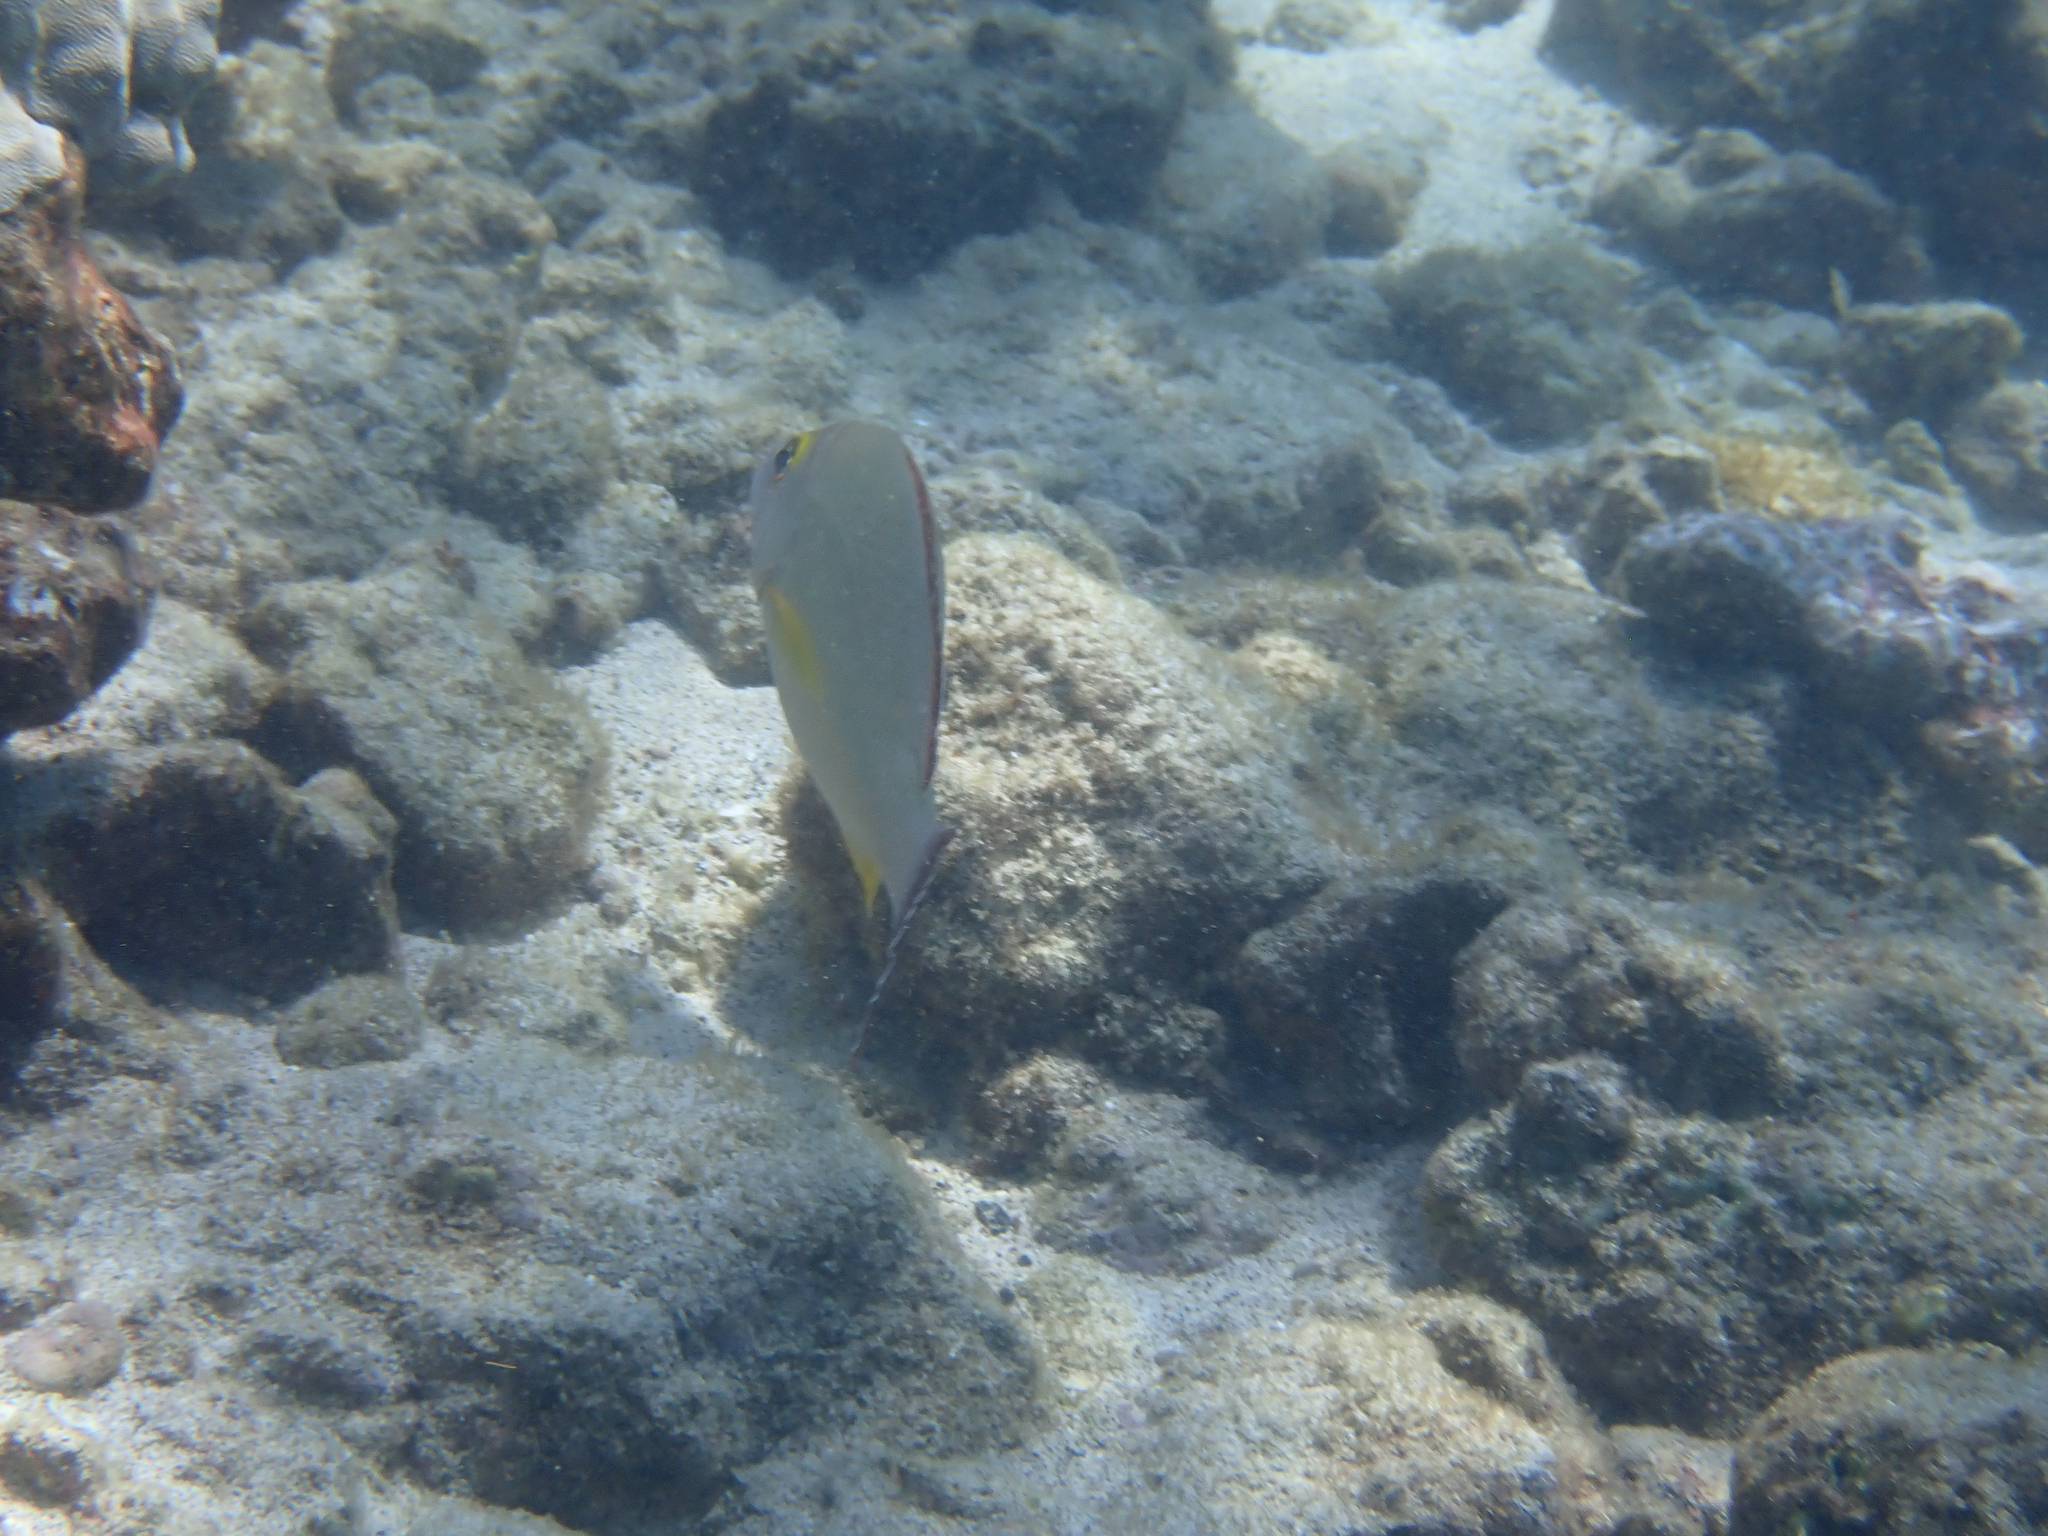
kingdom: Animalia
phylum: Chordata
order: Perciformes
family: Lutjanidae
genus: Lutjanus
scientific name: Lutjanus fulvus
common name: Blacktail snapper
